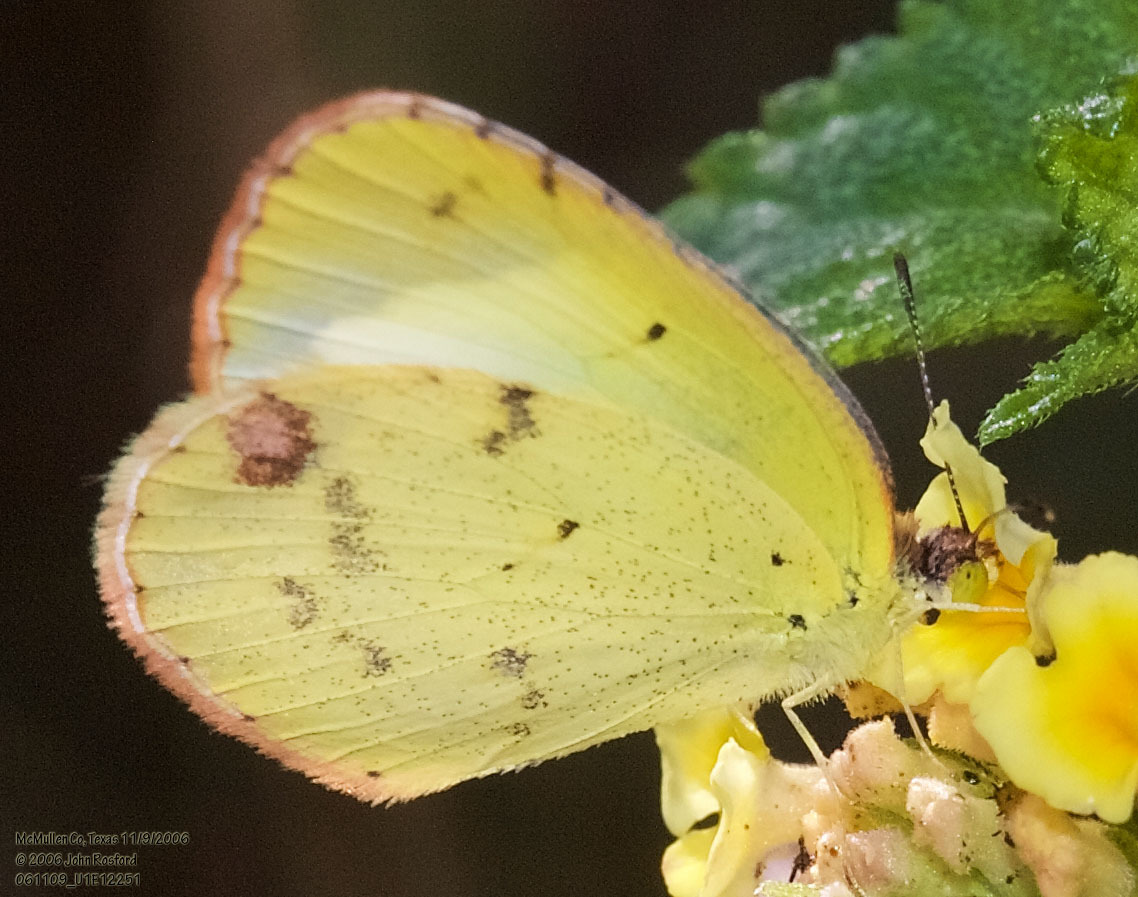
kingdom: Animalia
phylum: Arthropoda
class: Insecta
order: Lepidoptera
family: Pieridae
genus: Pyrisitia
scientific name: Pyrisitia lisa
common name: Little yellow
